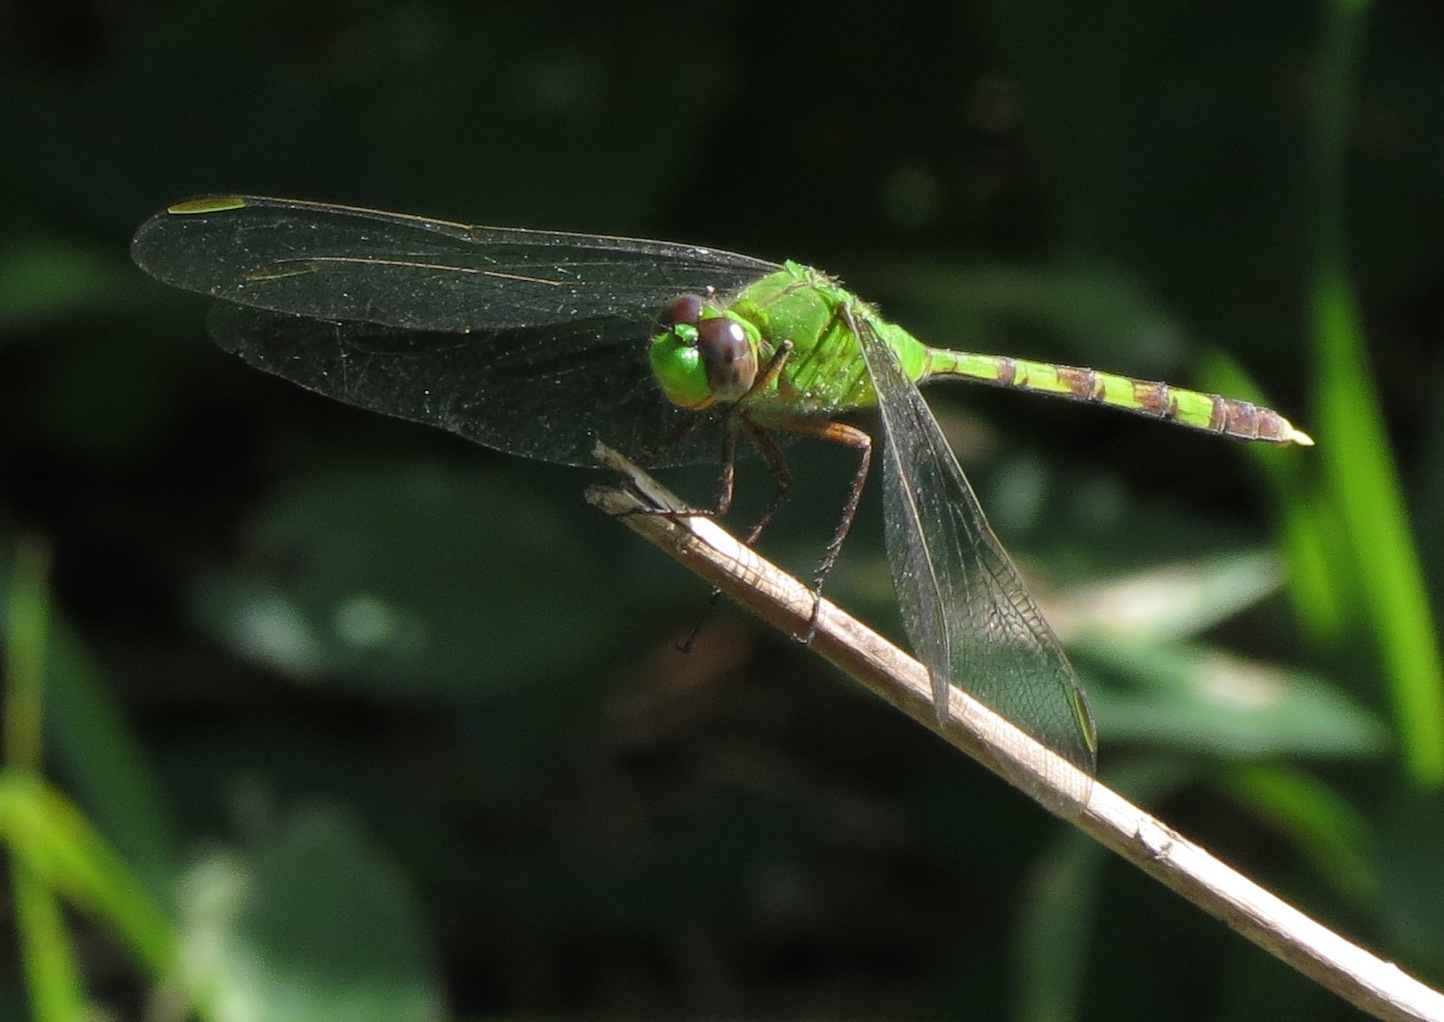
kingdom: Animalia
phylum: Arthropoda
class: Insecta
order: Odonata
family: Libellulidae
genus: Erythemis
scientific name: Erythemis vesiculosa
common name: Great pondhawk
